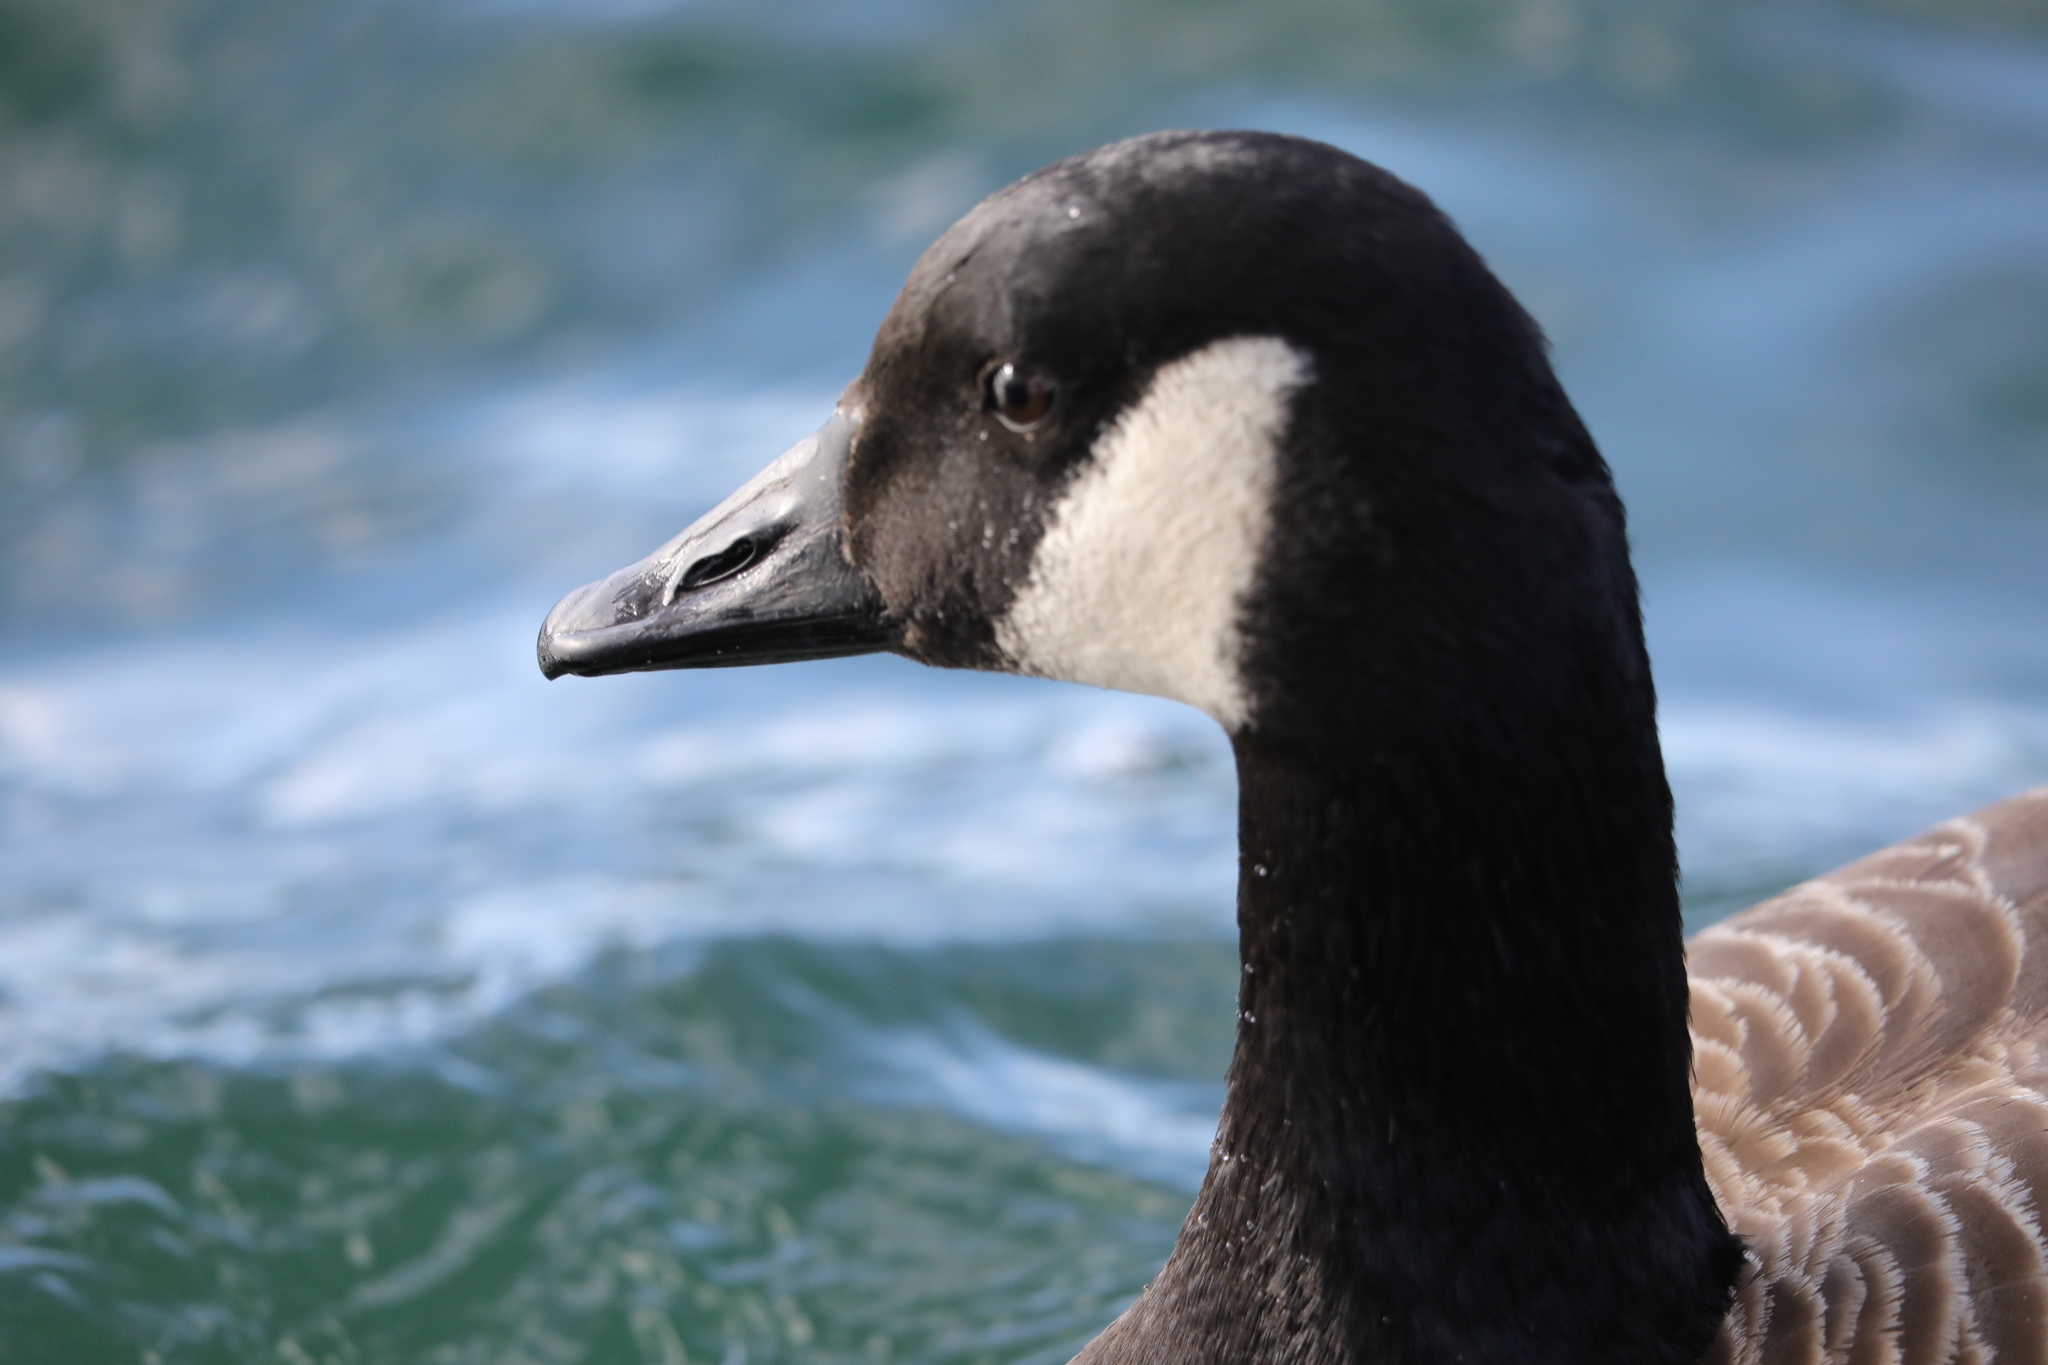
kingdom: Animalia
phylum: Chordata
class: Aves
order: Anseriformes
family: Anatidae
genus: Branta
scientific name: Branta canadensis
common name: Canada goose
